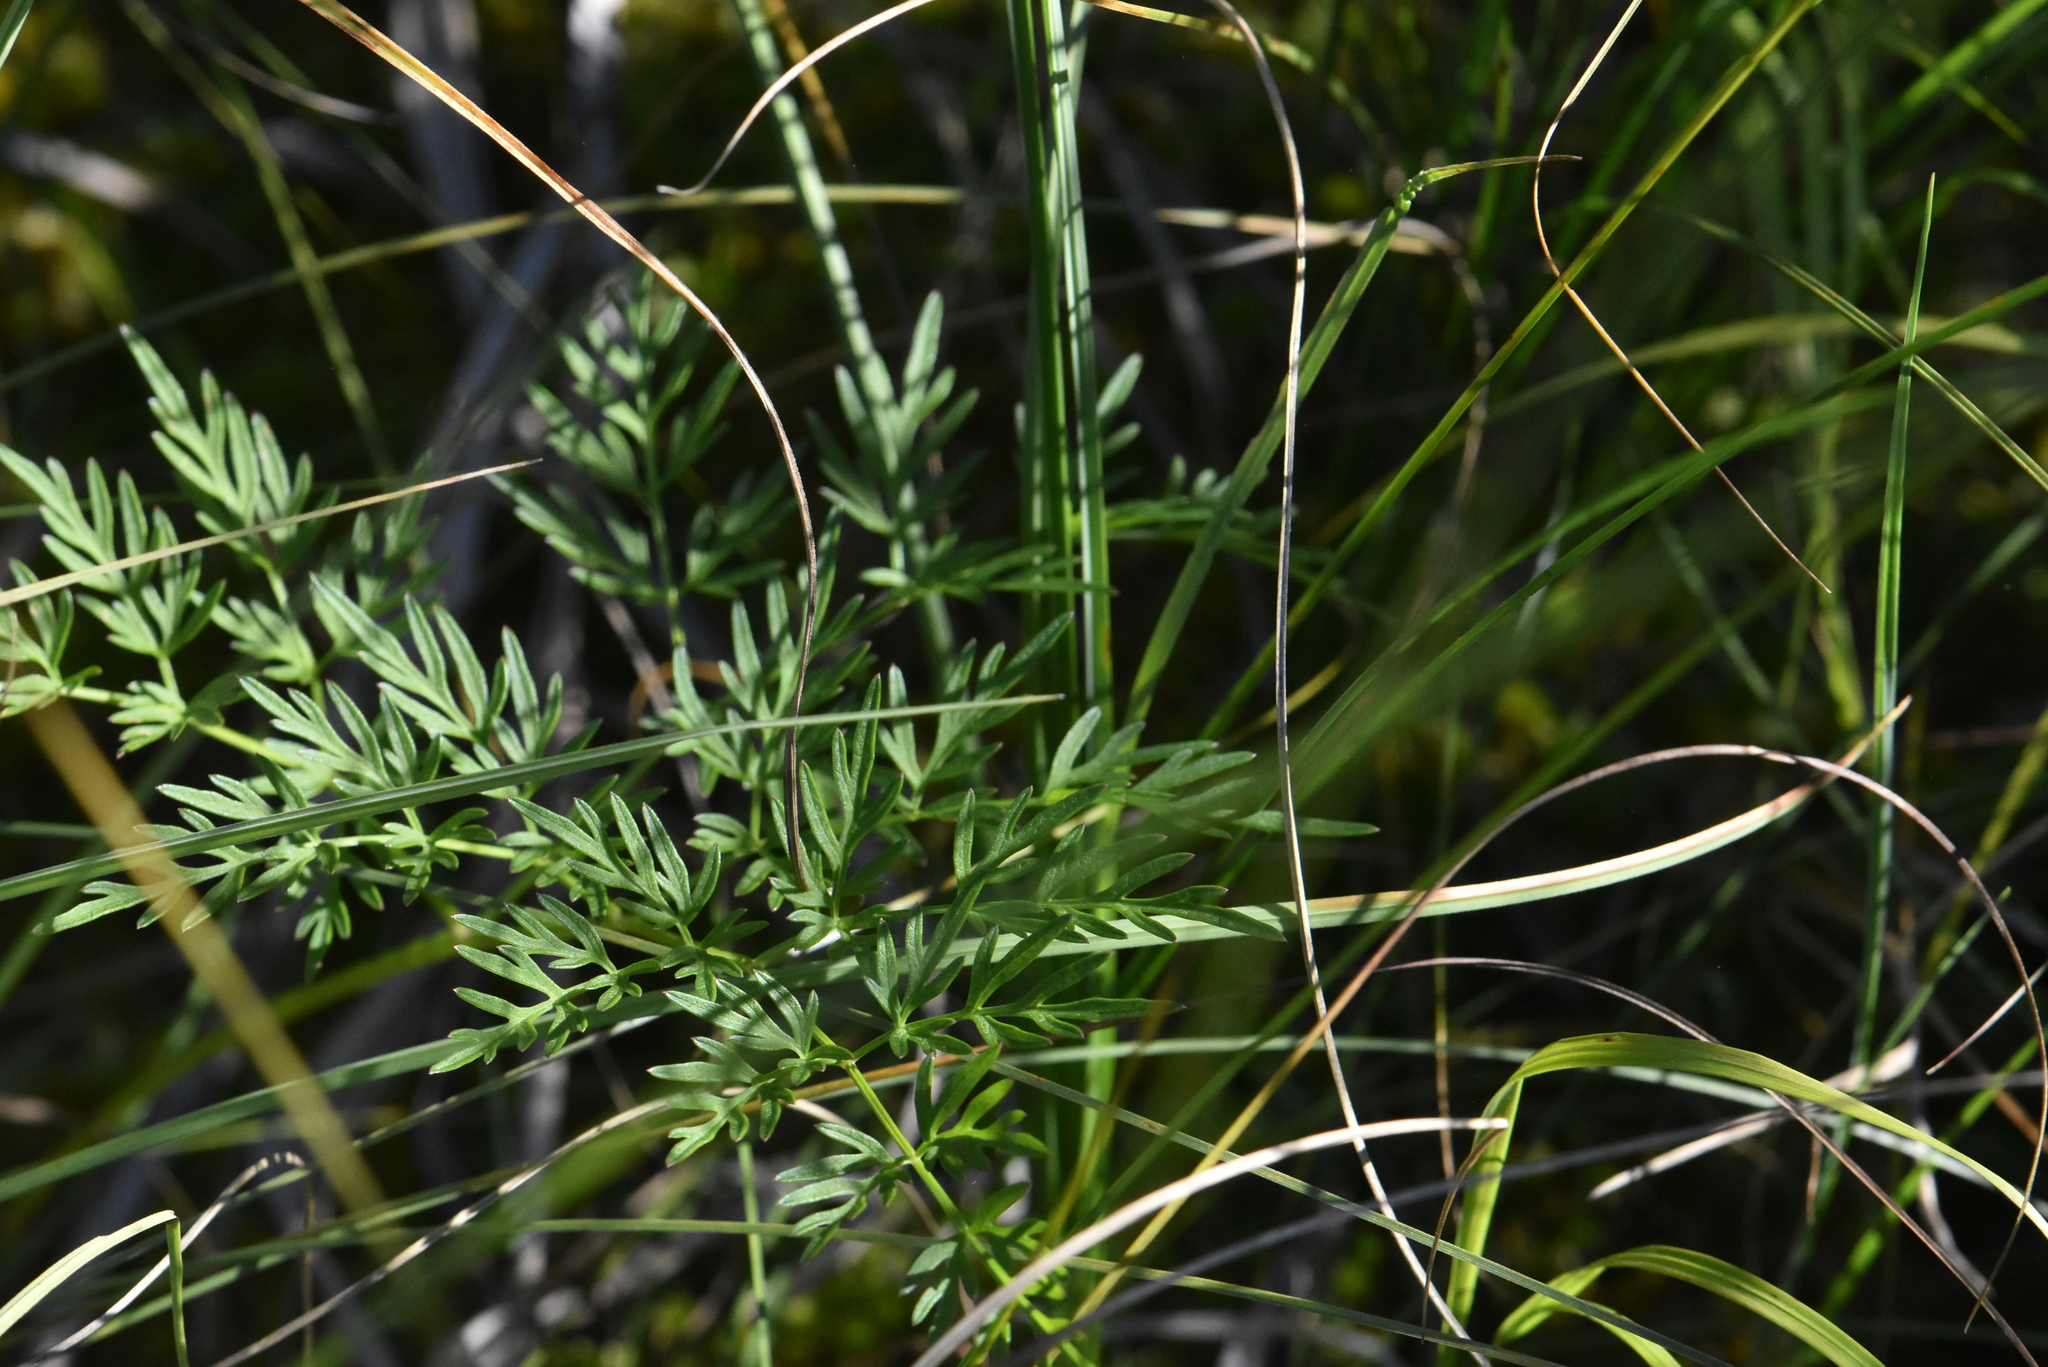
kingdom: Plantae
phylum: Tracheophyta
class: Magnoliopsida
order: Apiales
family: Apiaceae
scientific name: Apiaceae
